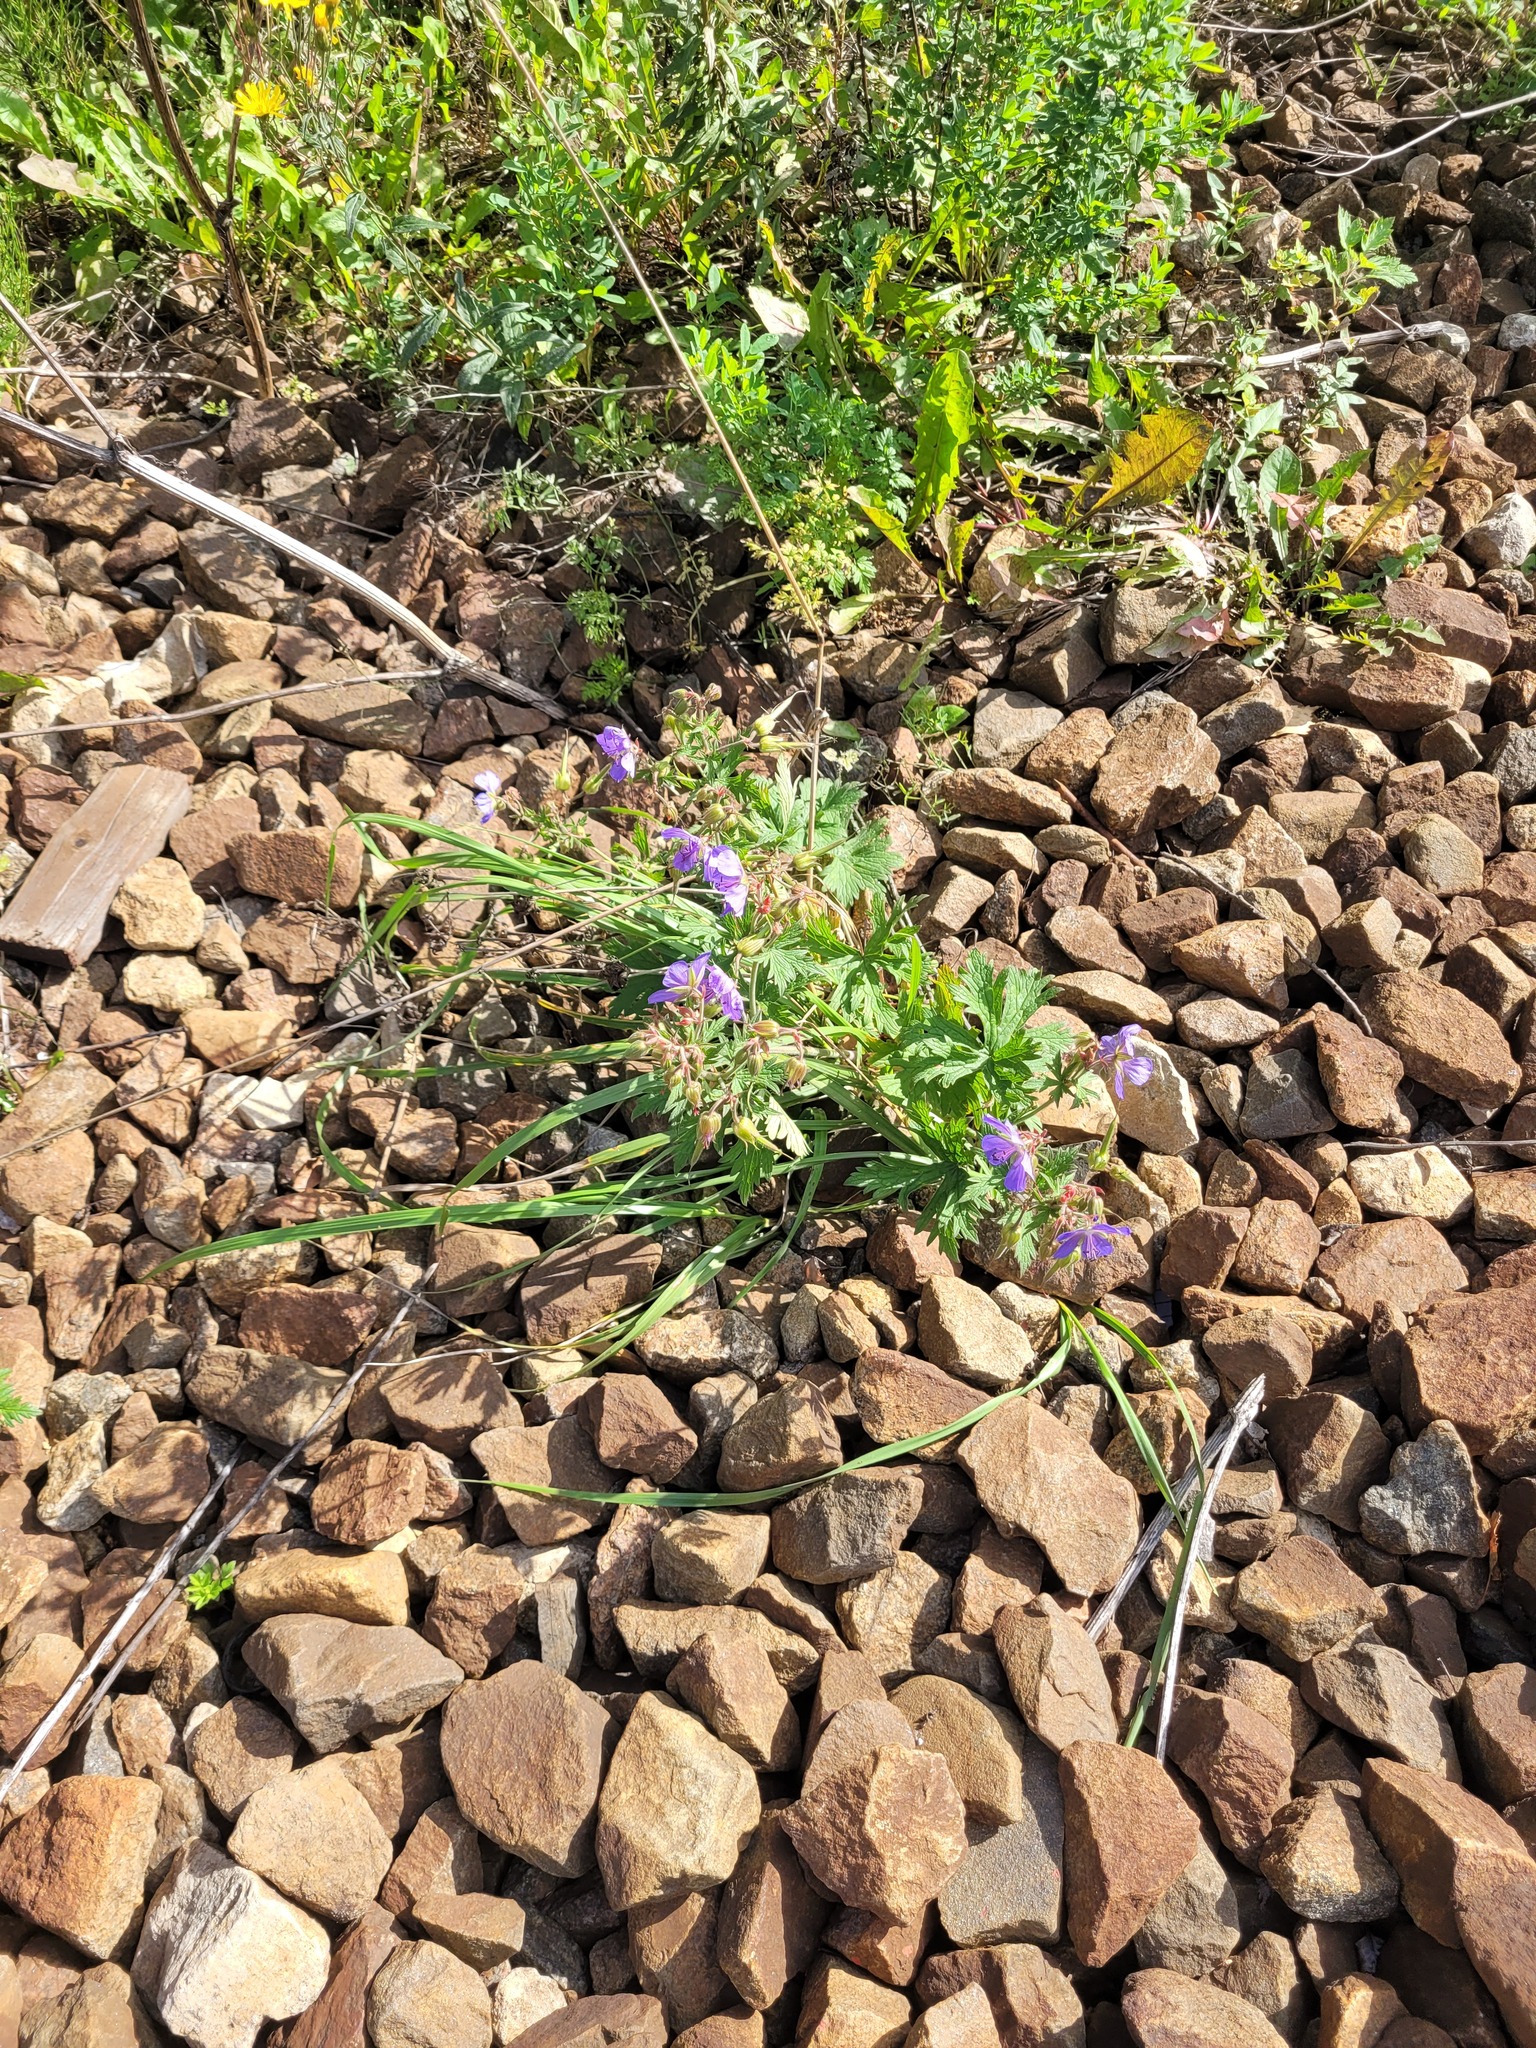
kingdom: Plantae
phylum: Tracheophyta
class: Magnoliopsida
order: Geraniales
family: Geraniaceae
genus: Geranium
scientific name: Geranium pratense
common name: Meadow crane's-bill
